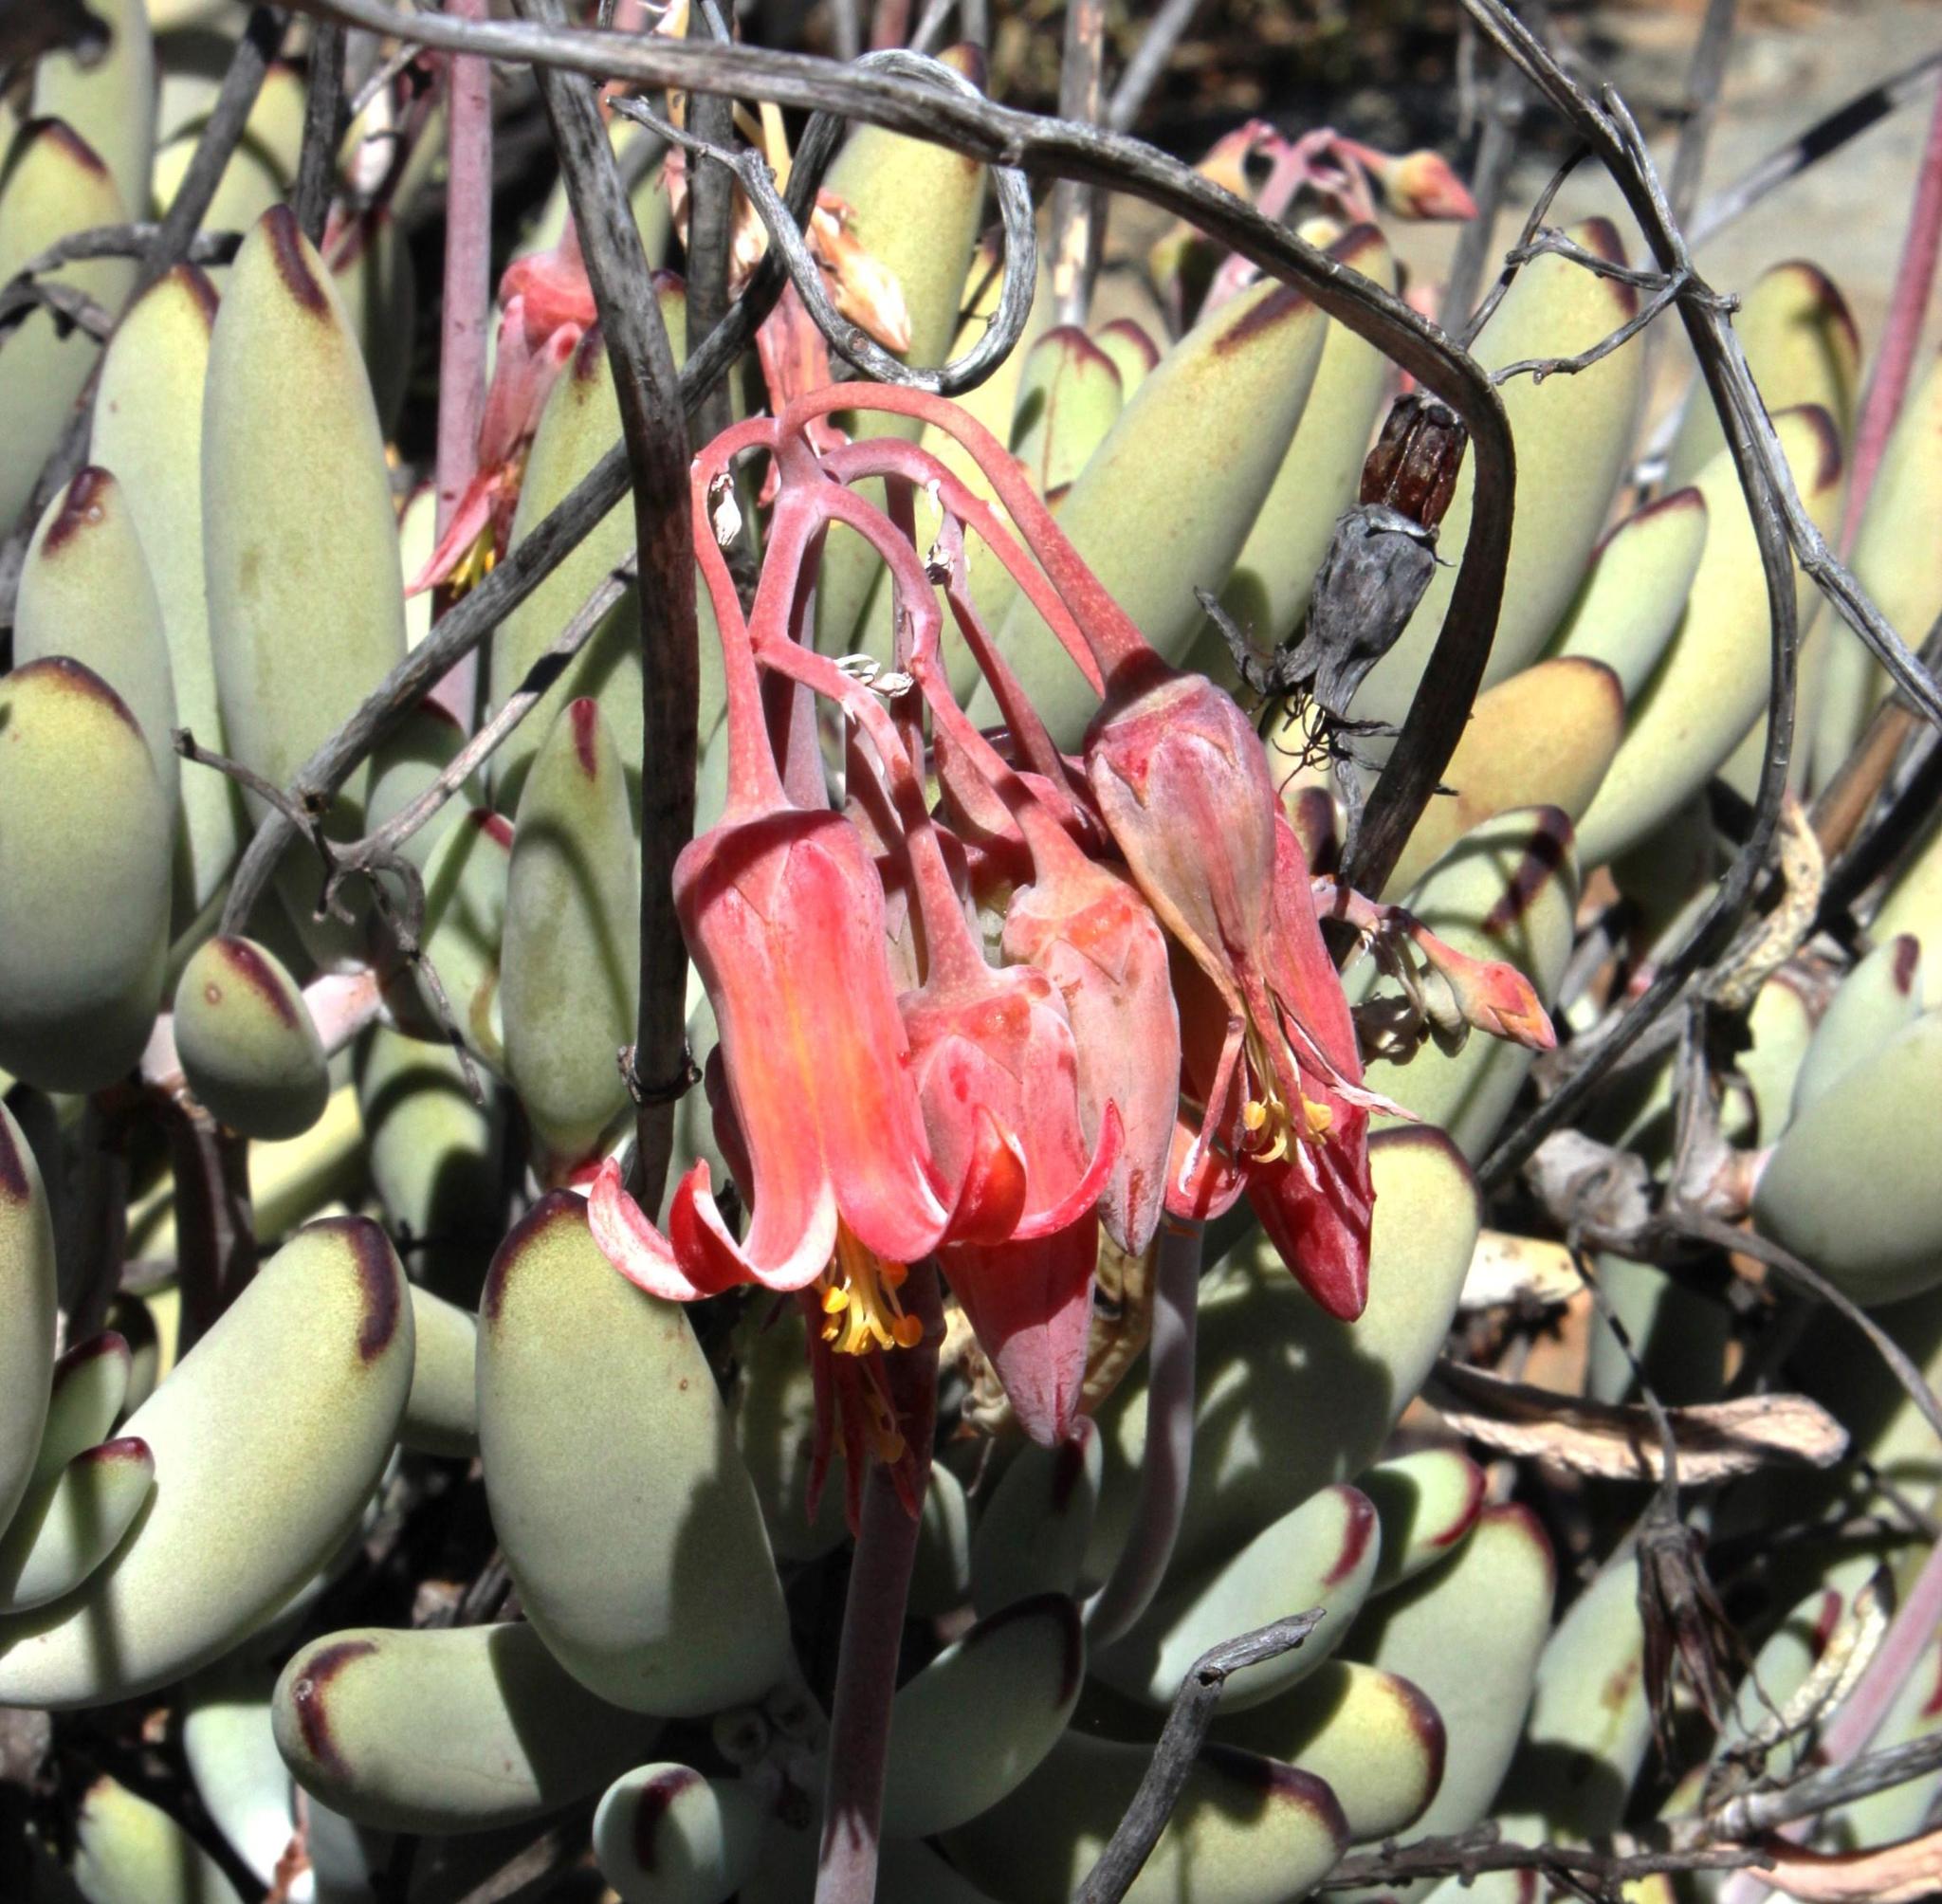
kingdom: Plantae
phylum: Tracheophyta
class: Magnoliopsida
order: Saxifragales
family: Crassulaceae
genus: Cotyledon
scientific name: Cotyledon orbiculata
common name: Pig's ear
